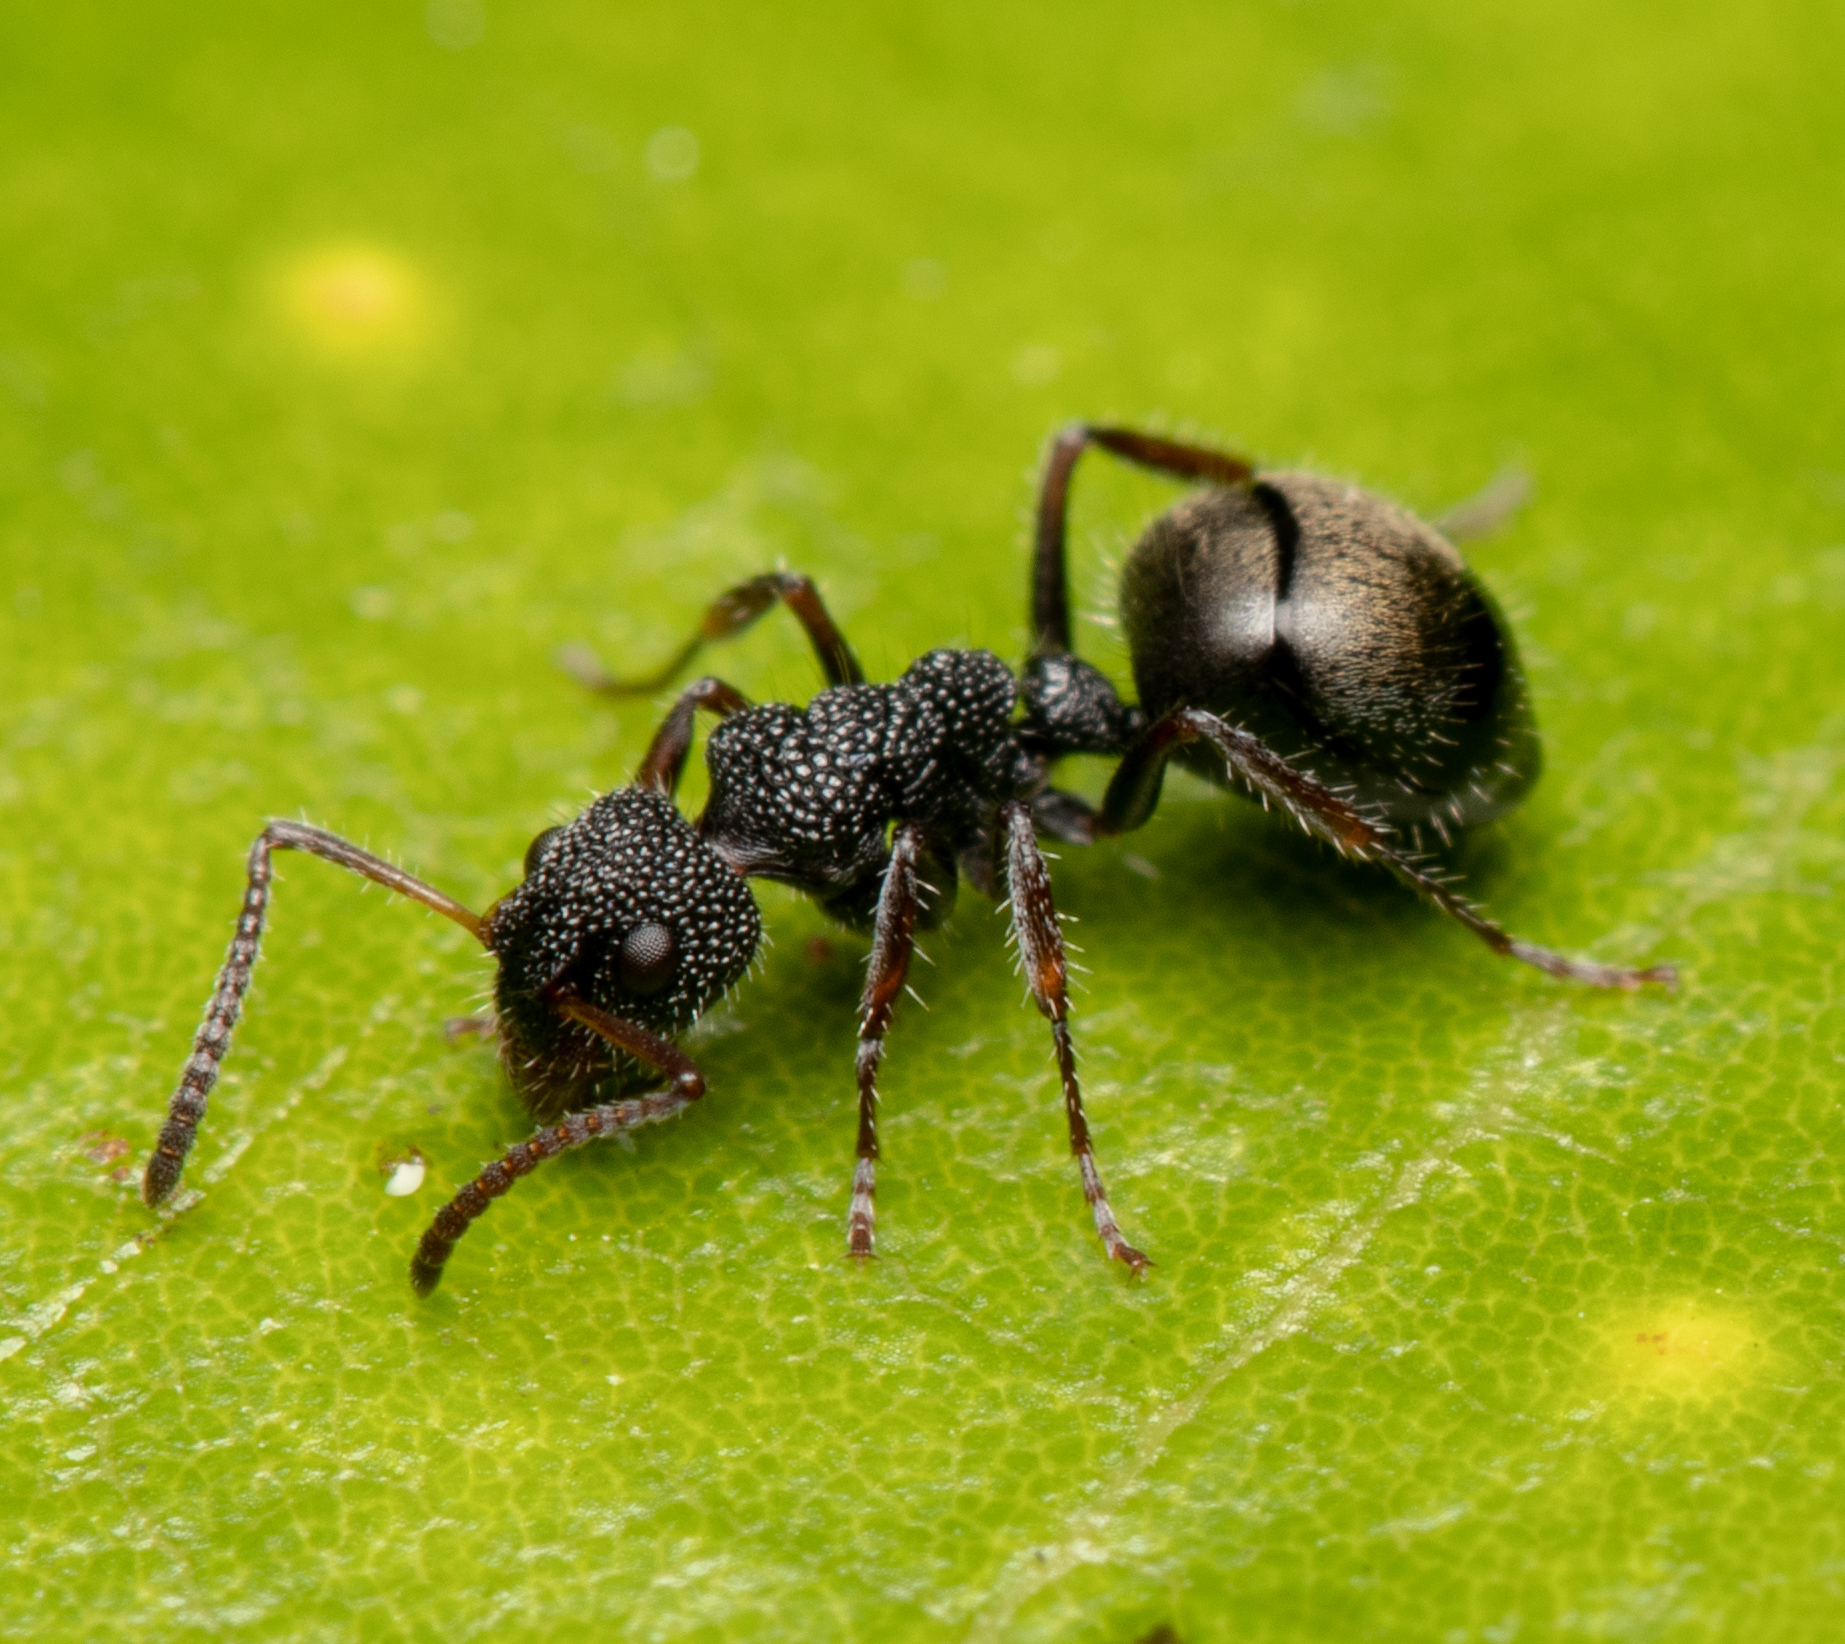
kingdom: Animalia
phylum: Arthropoda
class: Insecta
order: Hymenoptera
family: Formicidae
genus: Dolichoderus
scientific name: Dolichoderus scrobiculatus
